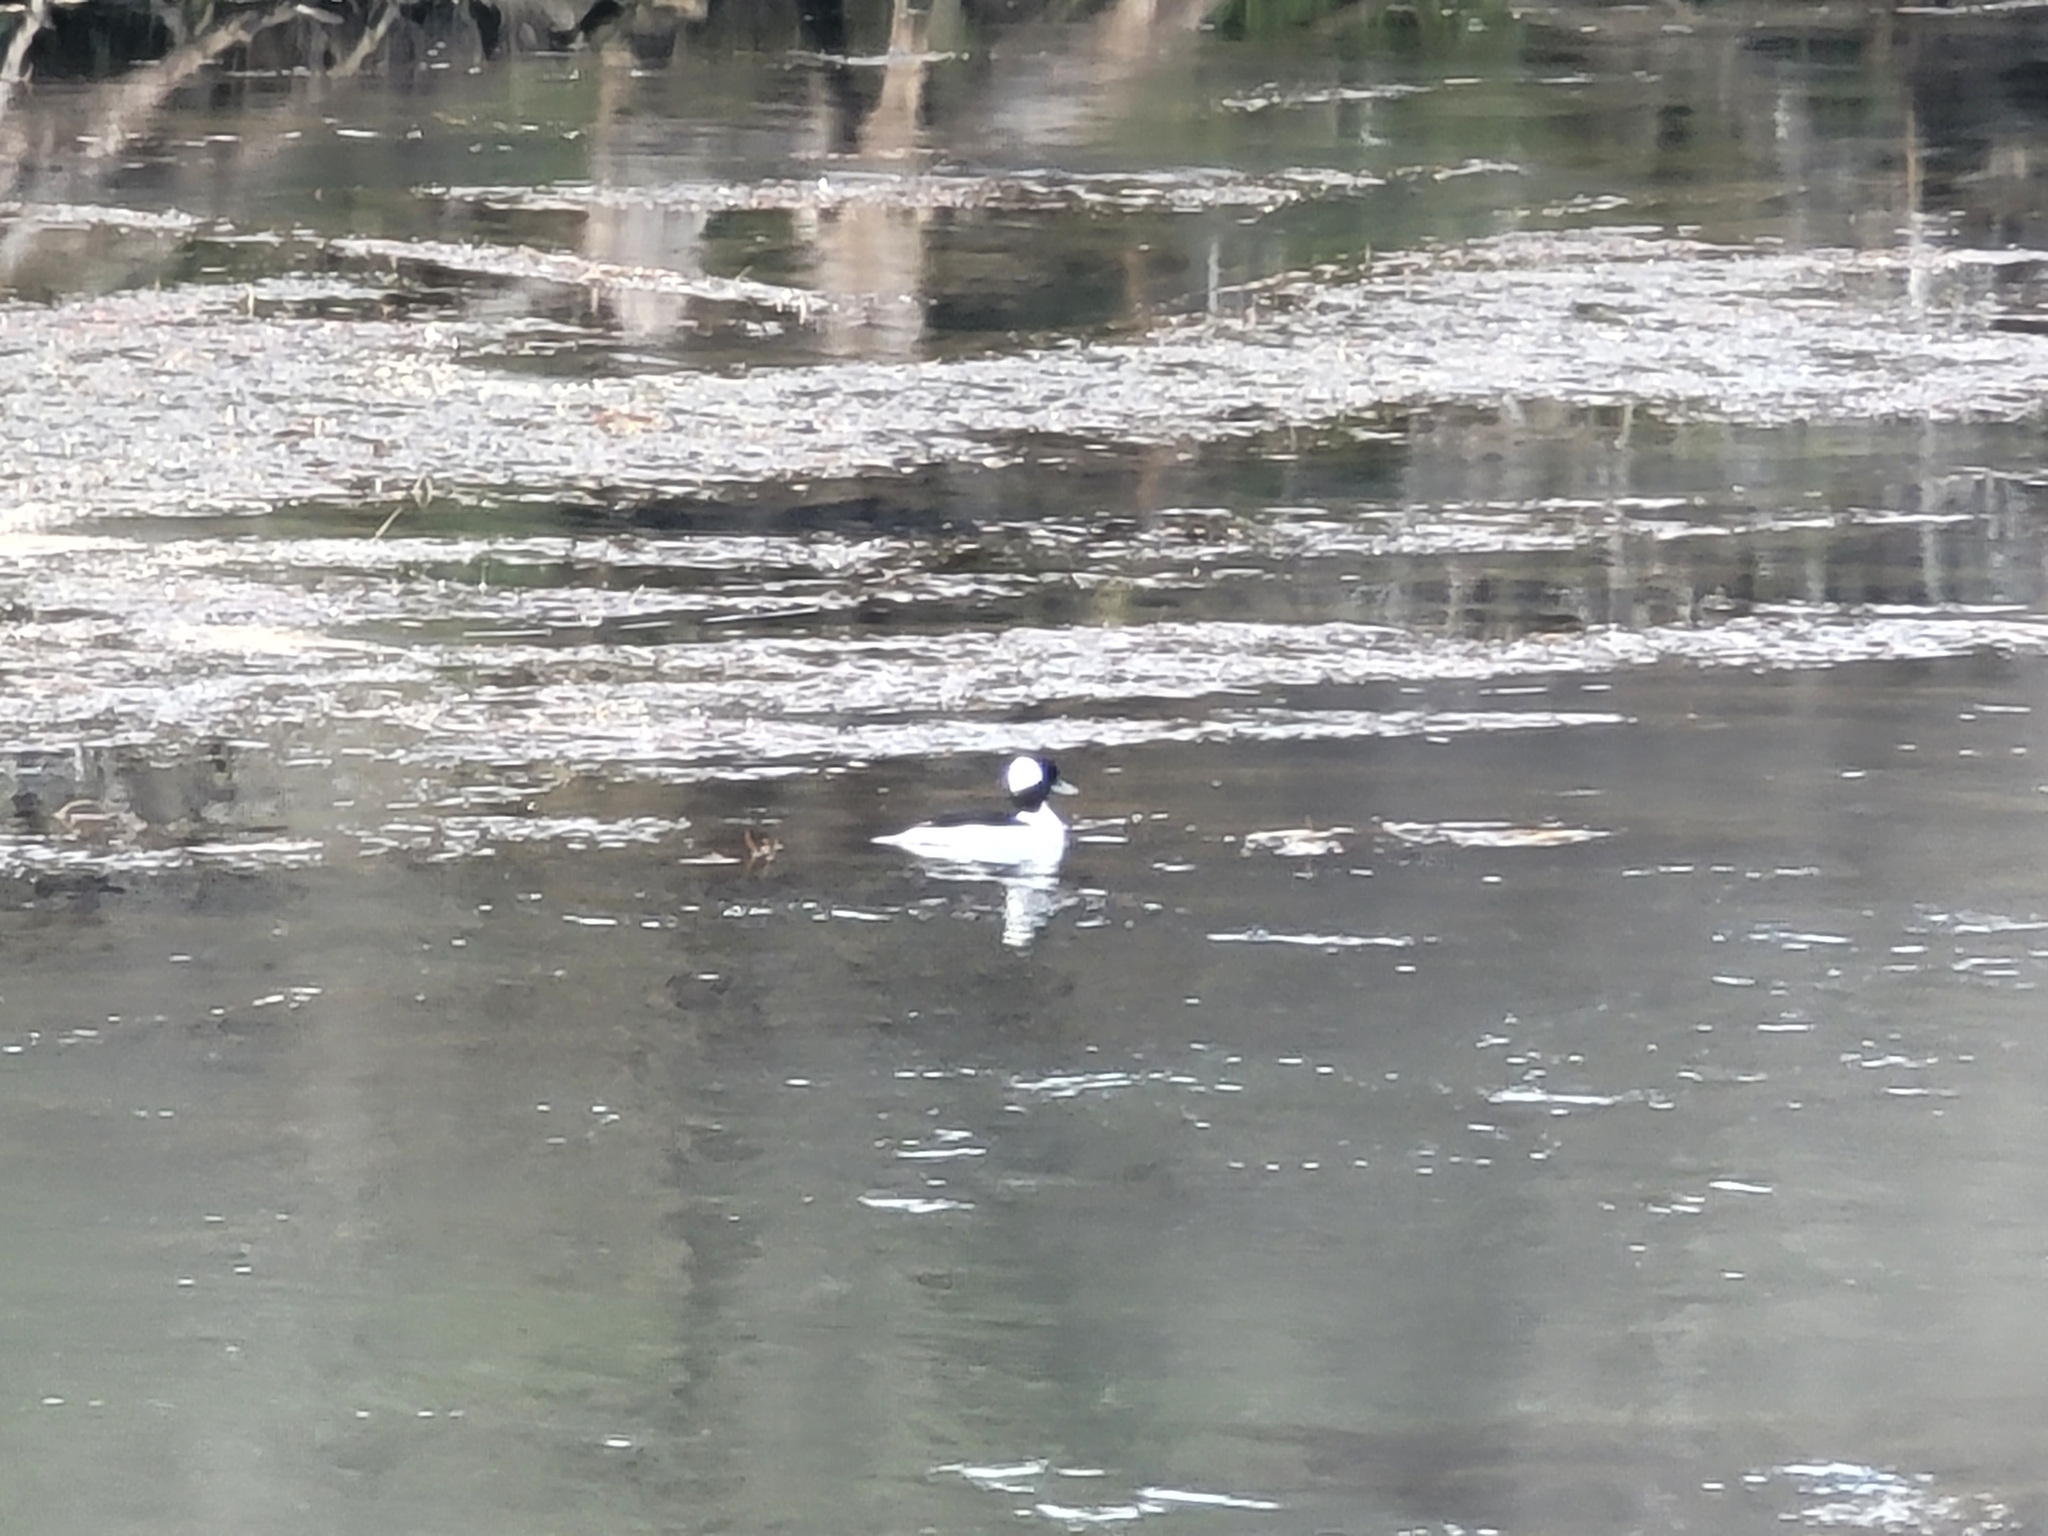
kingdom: Animalia
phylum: Chordata
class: Aves
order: Anseriformes
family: Anatidae
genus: Bucephala
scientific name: Bucephala albeola
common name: Bufflehead
